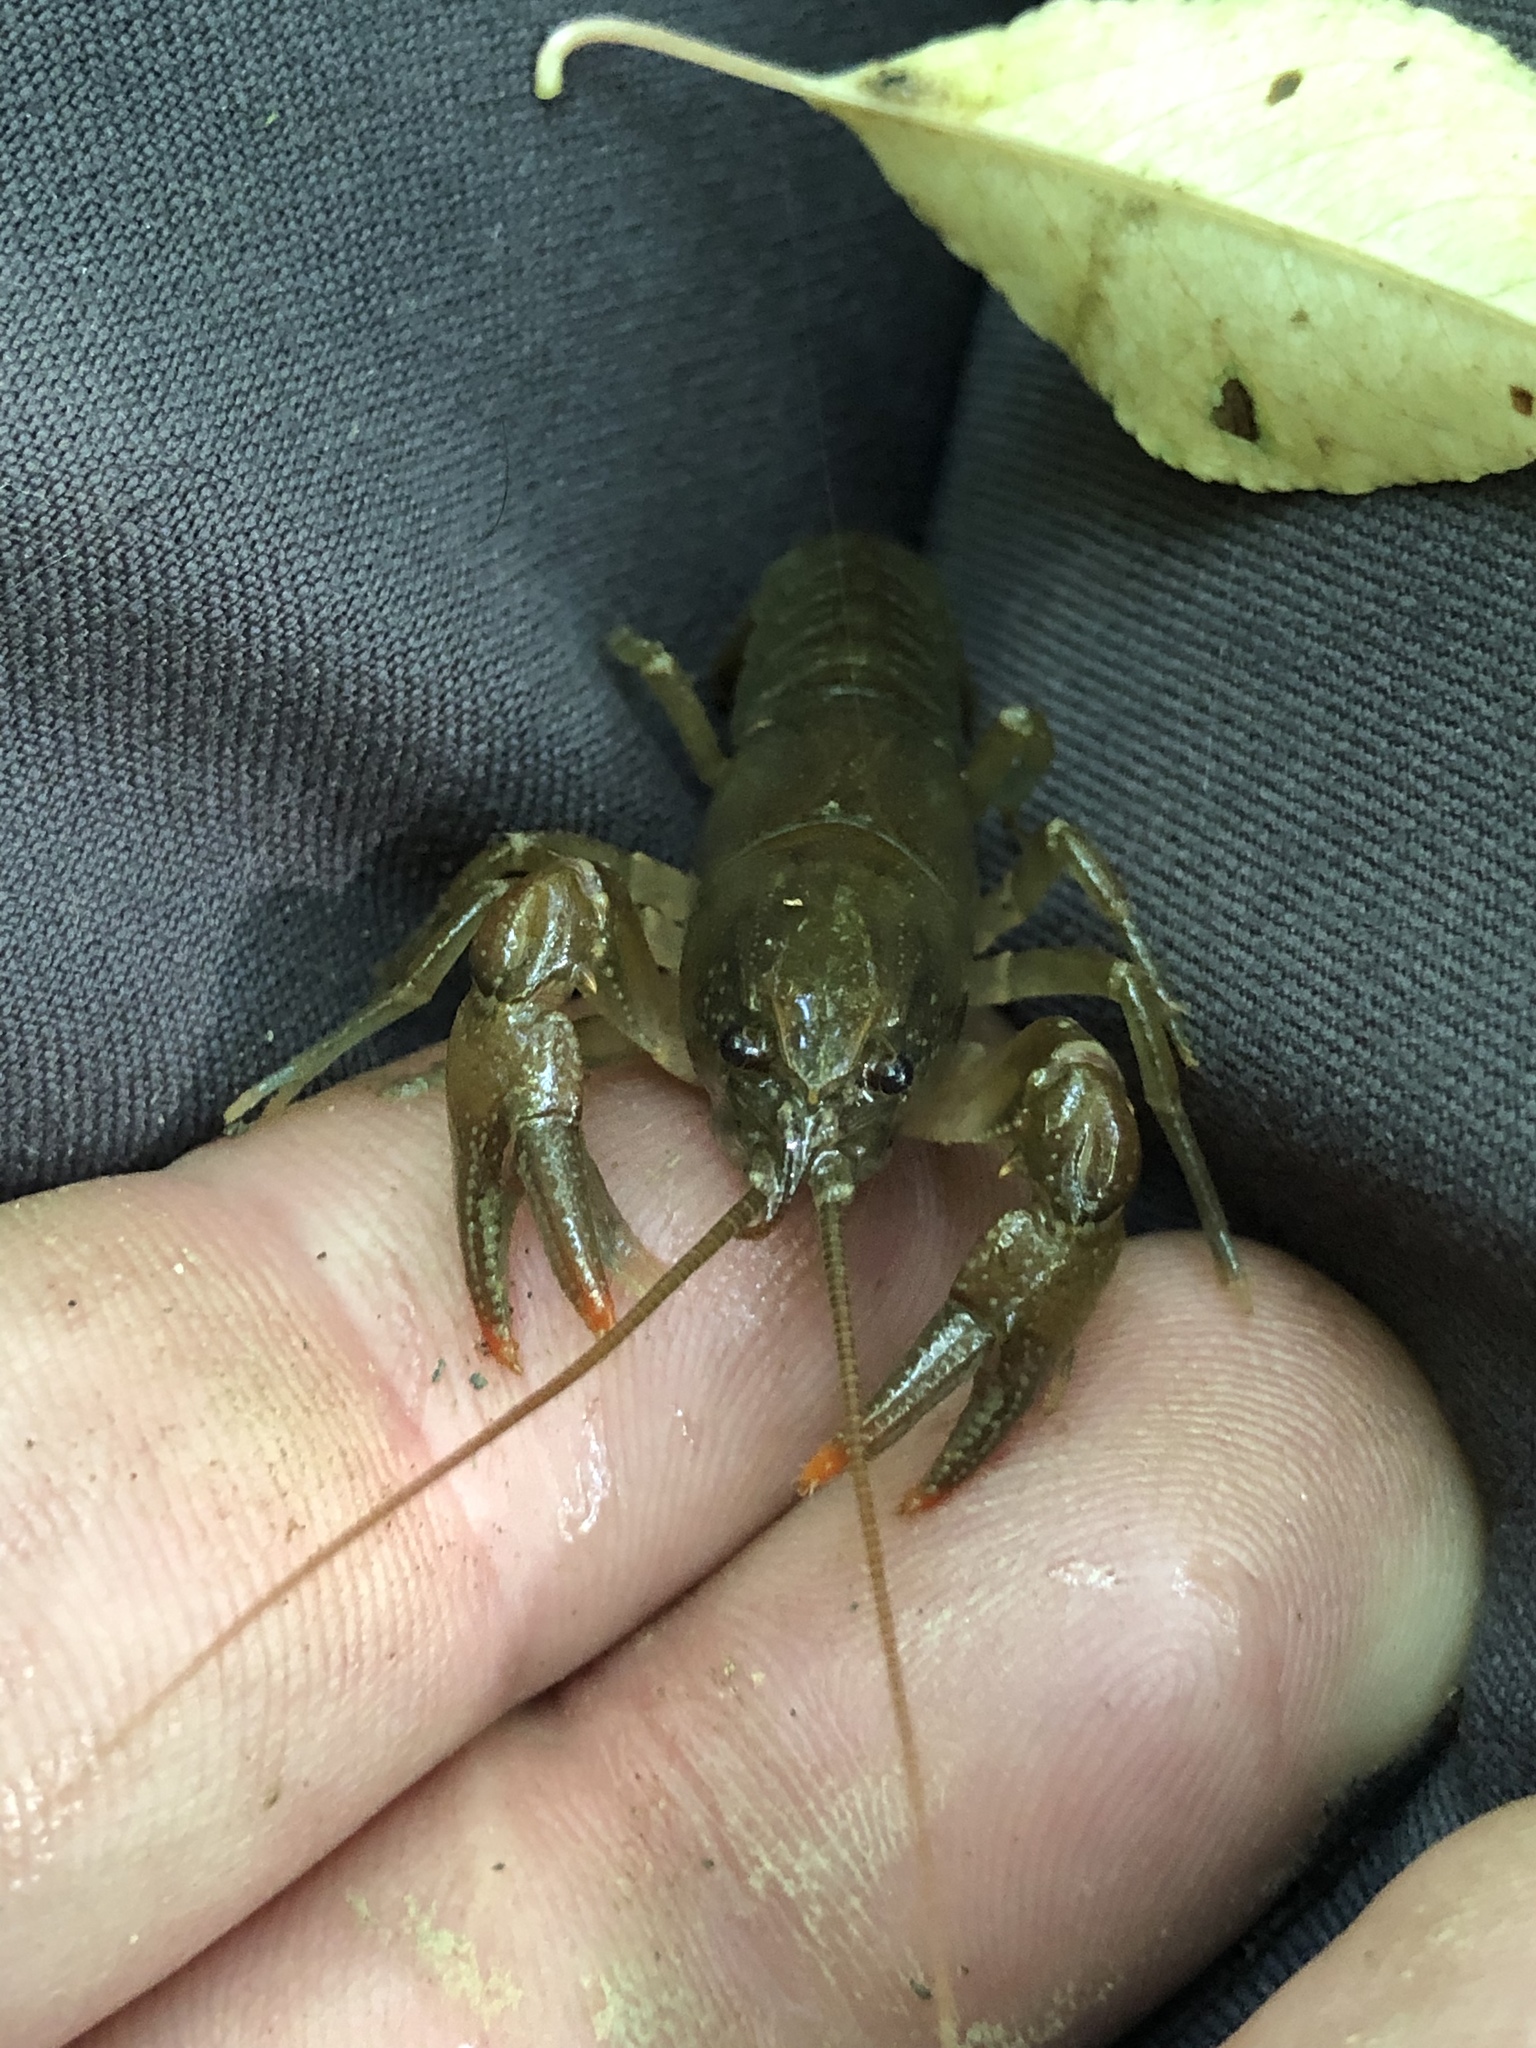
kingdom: Animalia
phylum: Arthropoda
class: Malacostraca
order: Decapoda
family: Cambaridae
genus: Cambarus
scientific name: Cambarus bartonii
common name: Appalachian brook crayfish
